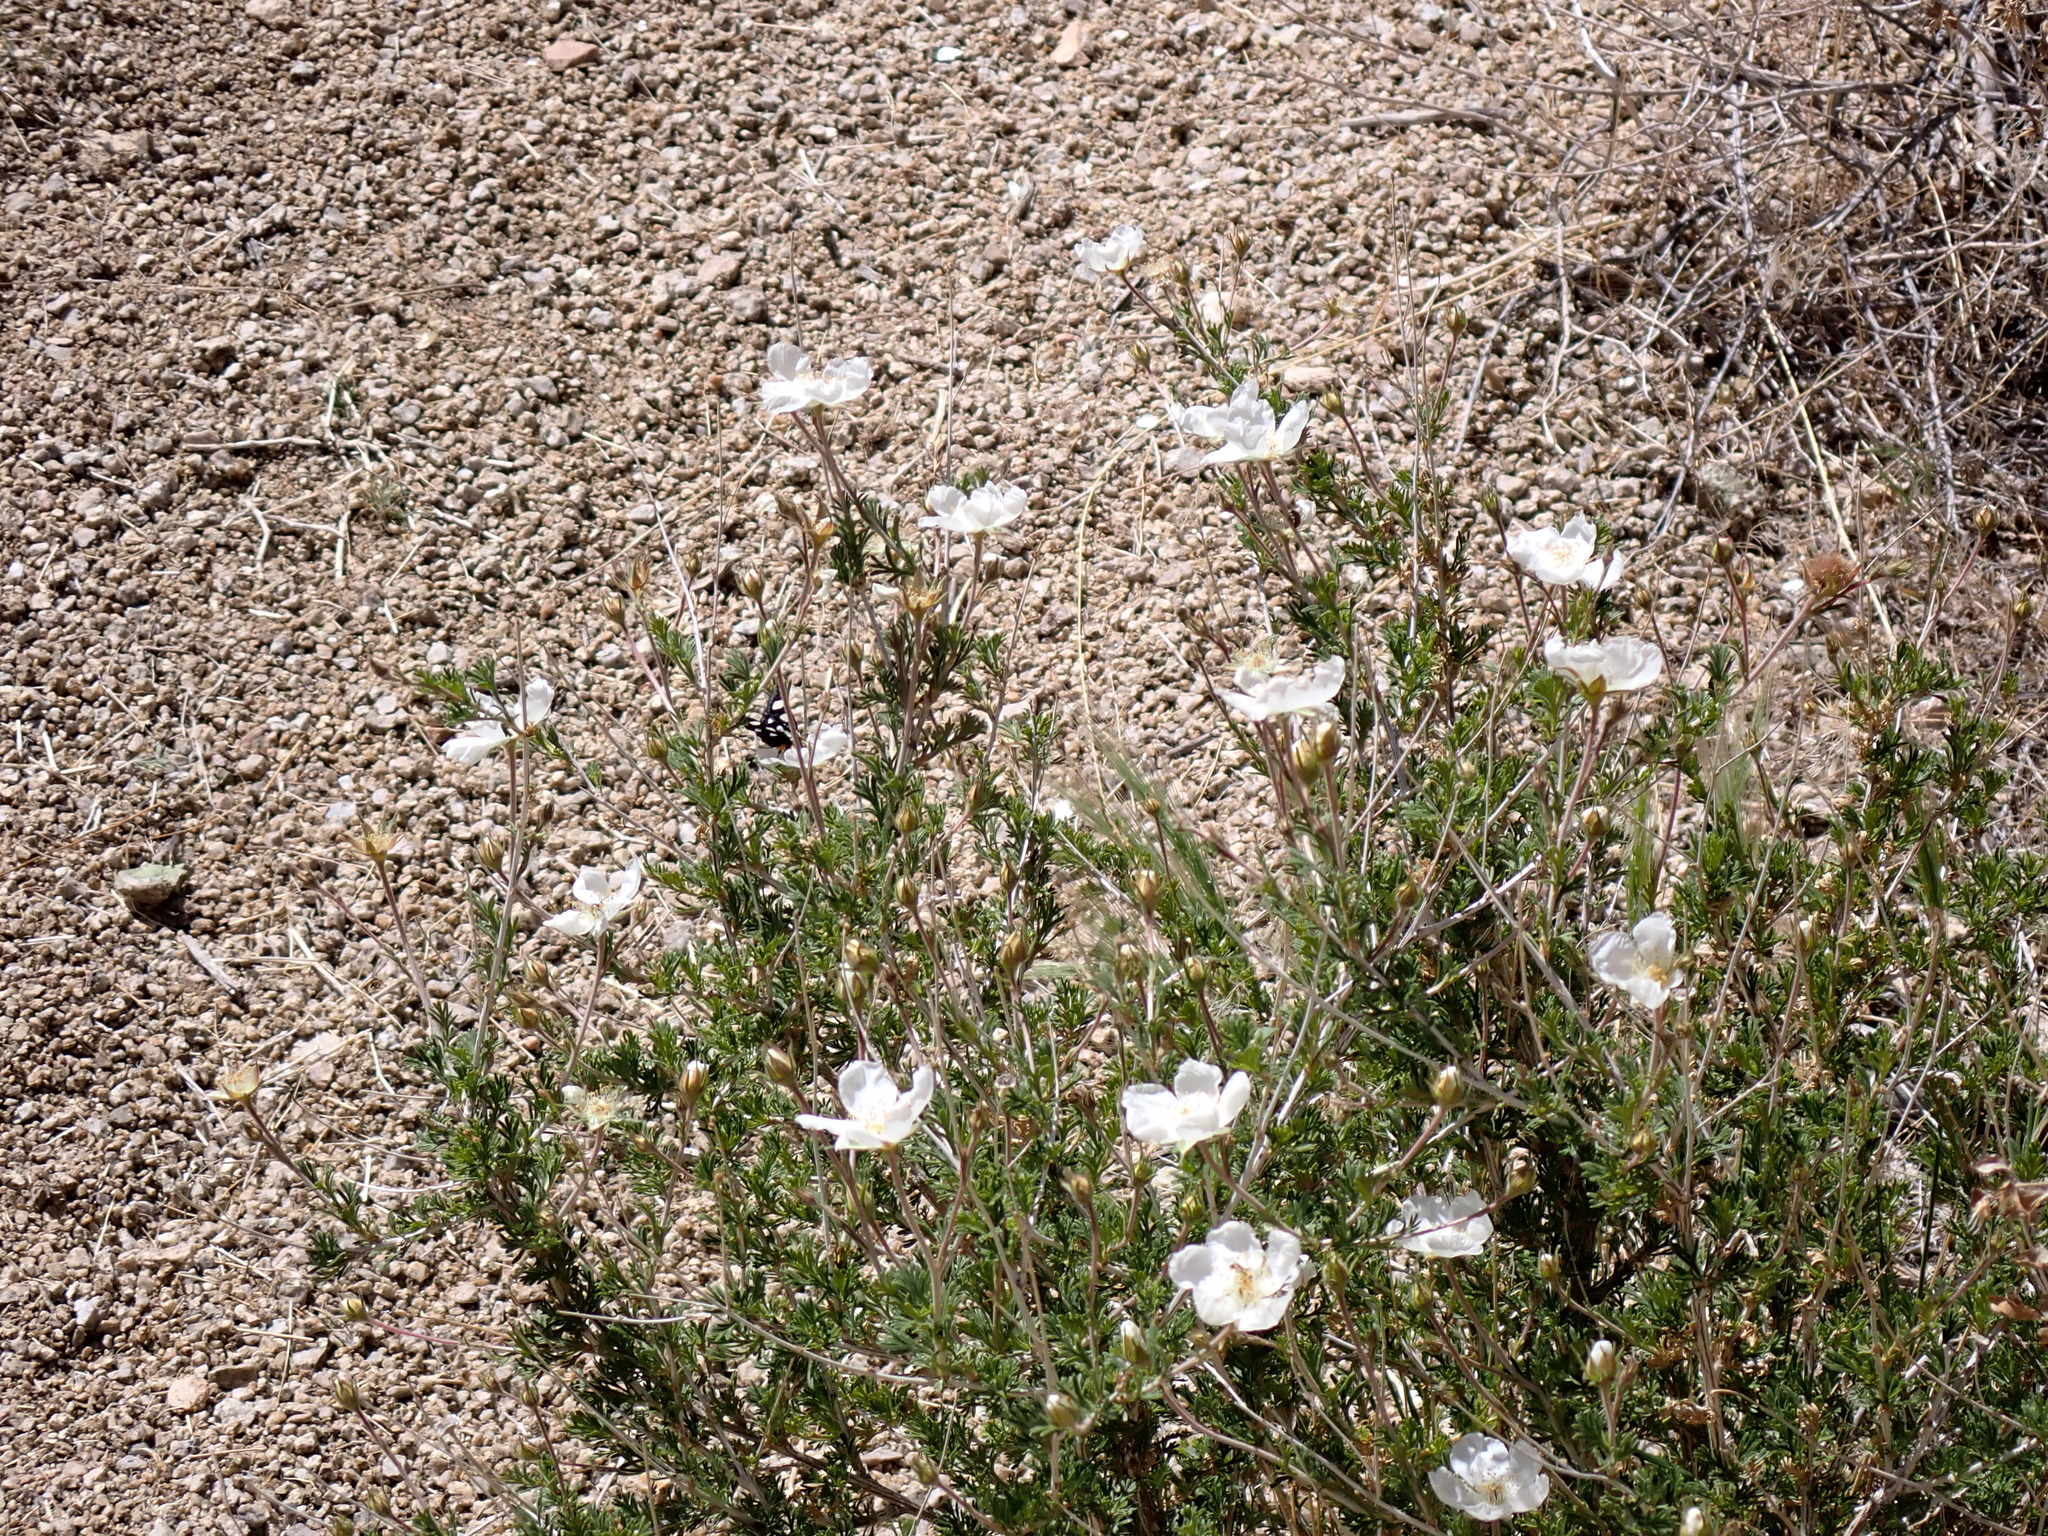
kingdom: Plantae
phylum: Tracheophyta
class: Magnoliopsida
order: Rosales
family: Rosaceae
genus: Fallugia
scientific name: Fallugia paradoxa
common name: Apache-plume
